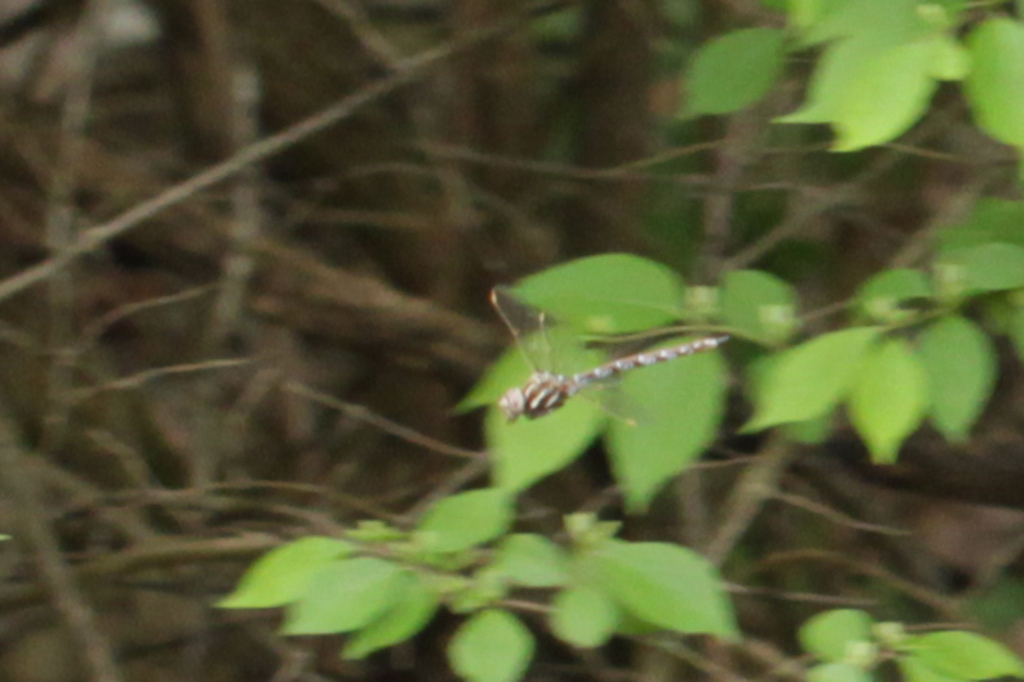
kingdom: Animalia
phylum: Arthropoda
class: Insecta
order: Odonata
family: Aeshnidae
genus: Basiaeschna
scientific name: Basiaeschna janata
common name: Springtime darner
